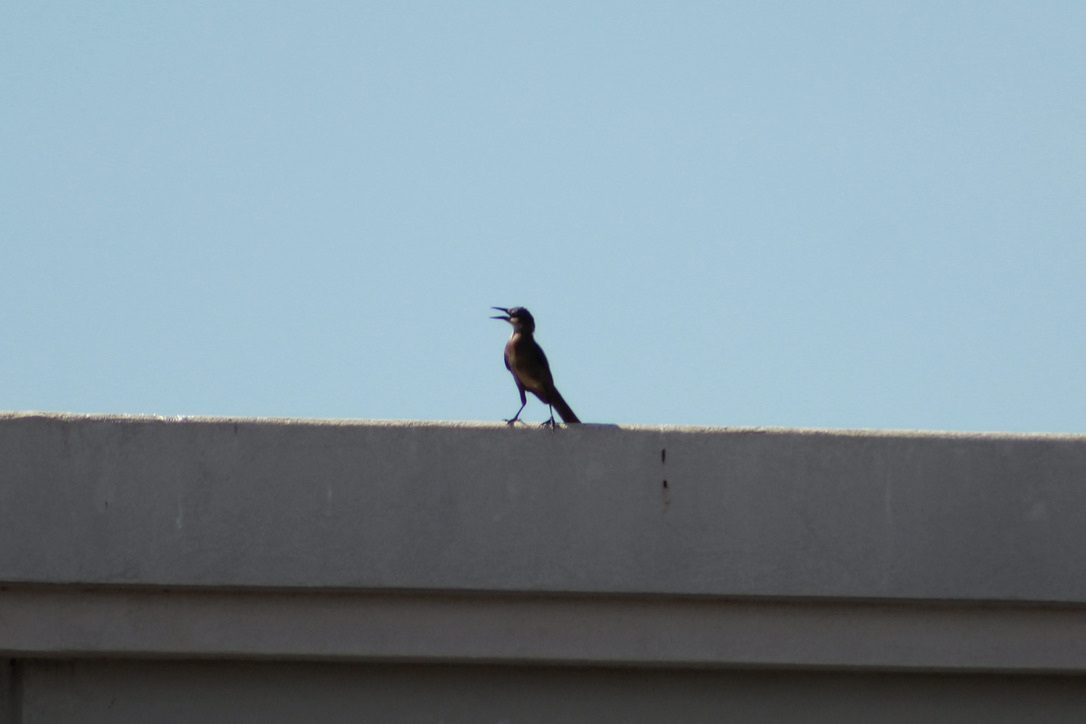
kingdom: Animalia
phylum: Chordata
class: Aves
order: Passeriformes
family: Icteridae
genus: Quiscalus
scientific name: Quiscalus mexicanus
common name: Great-tailed grackle
